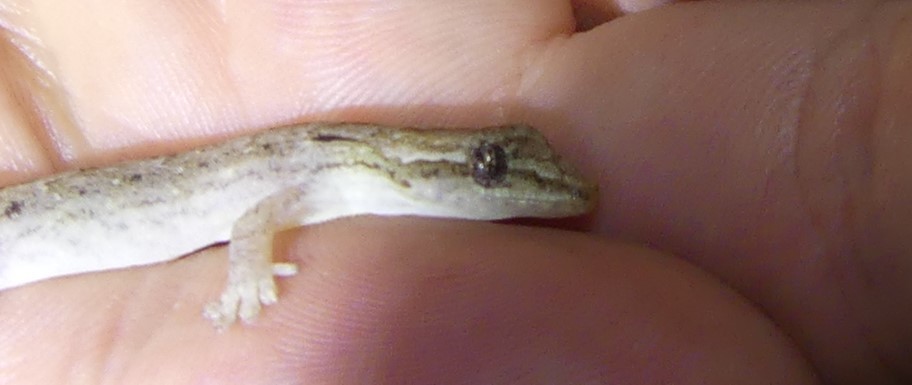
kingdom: Animalia
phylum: Chordata
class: Squamata
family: Gekkonidae
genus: Lepidodactylus
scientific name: Lepidodactylus lugubris
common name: Mourning gecko
